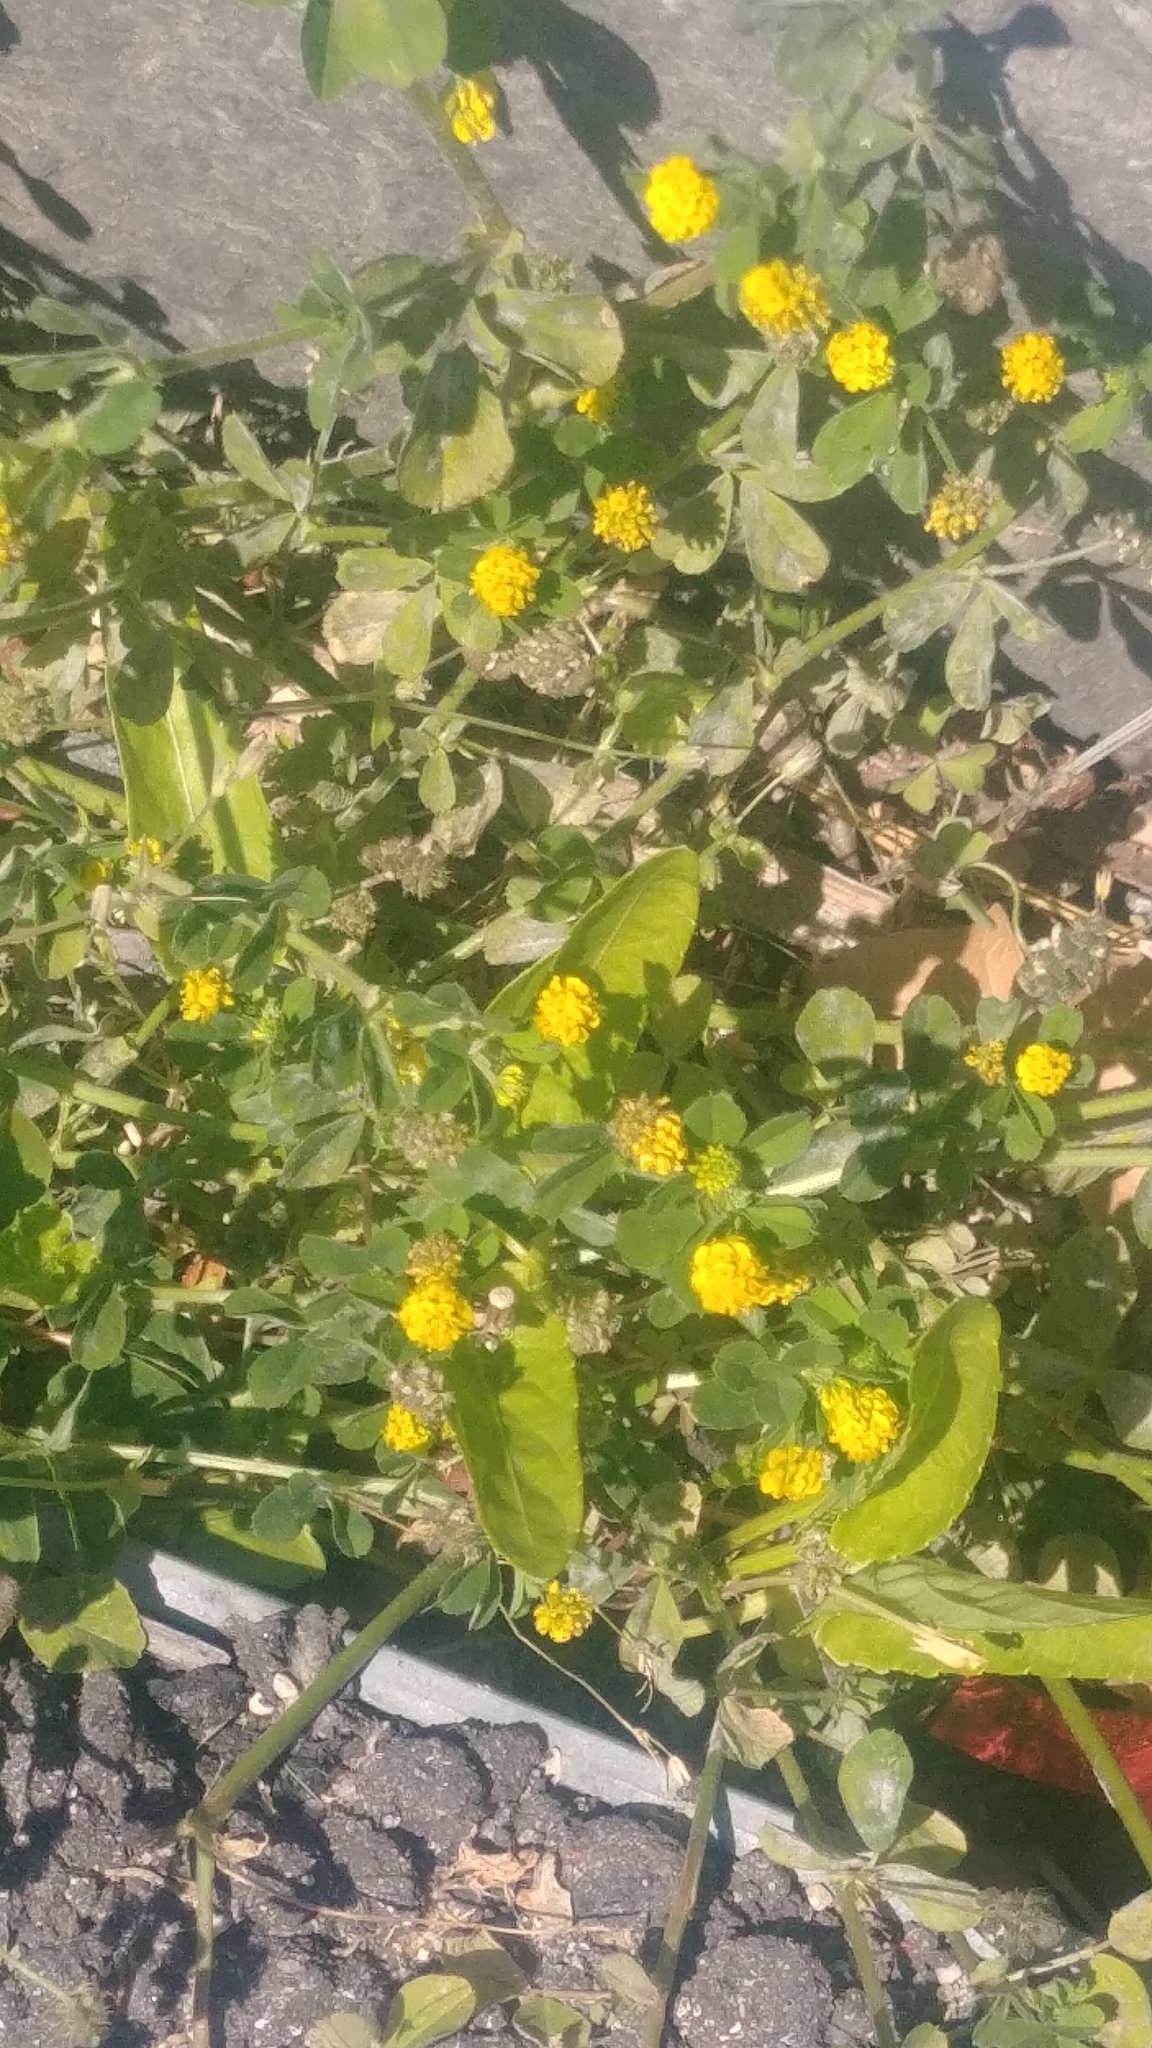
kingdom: Plantae
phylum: Tracheophyta
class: Magnoliopsida
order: Fabales
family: Fabaceae
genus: Medicago
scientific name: Medicago lupulina
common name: Black medick
